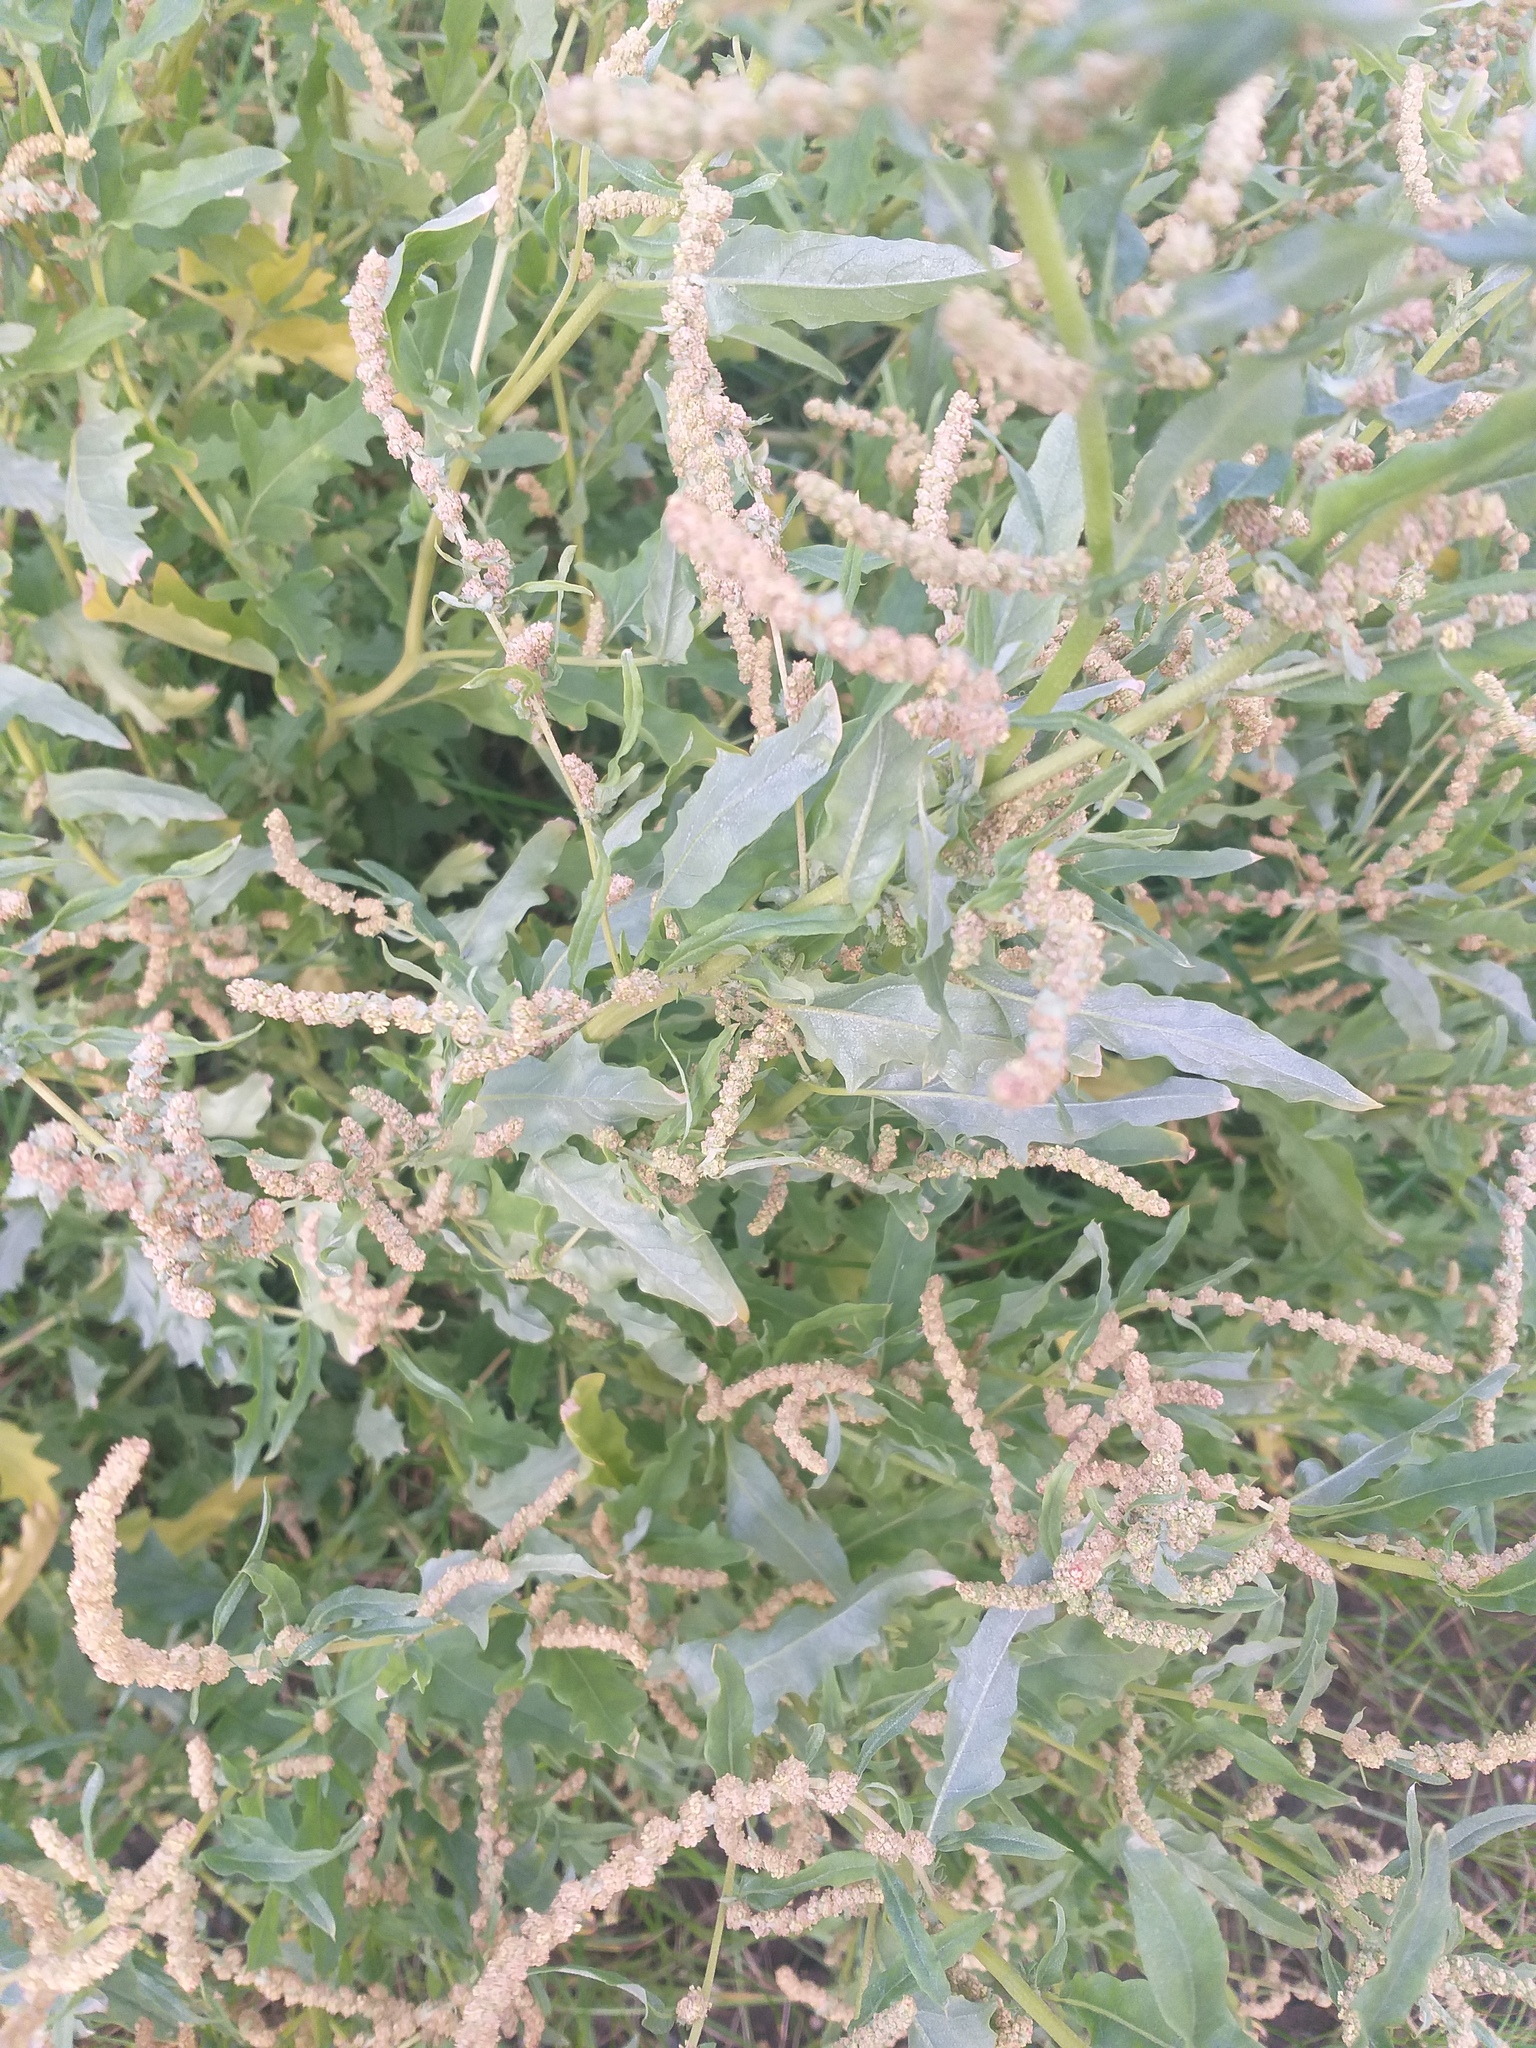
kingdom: Plantae
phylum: Tracheophyta
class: Magnoliopsida
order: Caryophyllales
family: Amaranthaceae
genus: Atriplex
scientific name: Atriplex tatarica
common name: Tatarian orache
